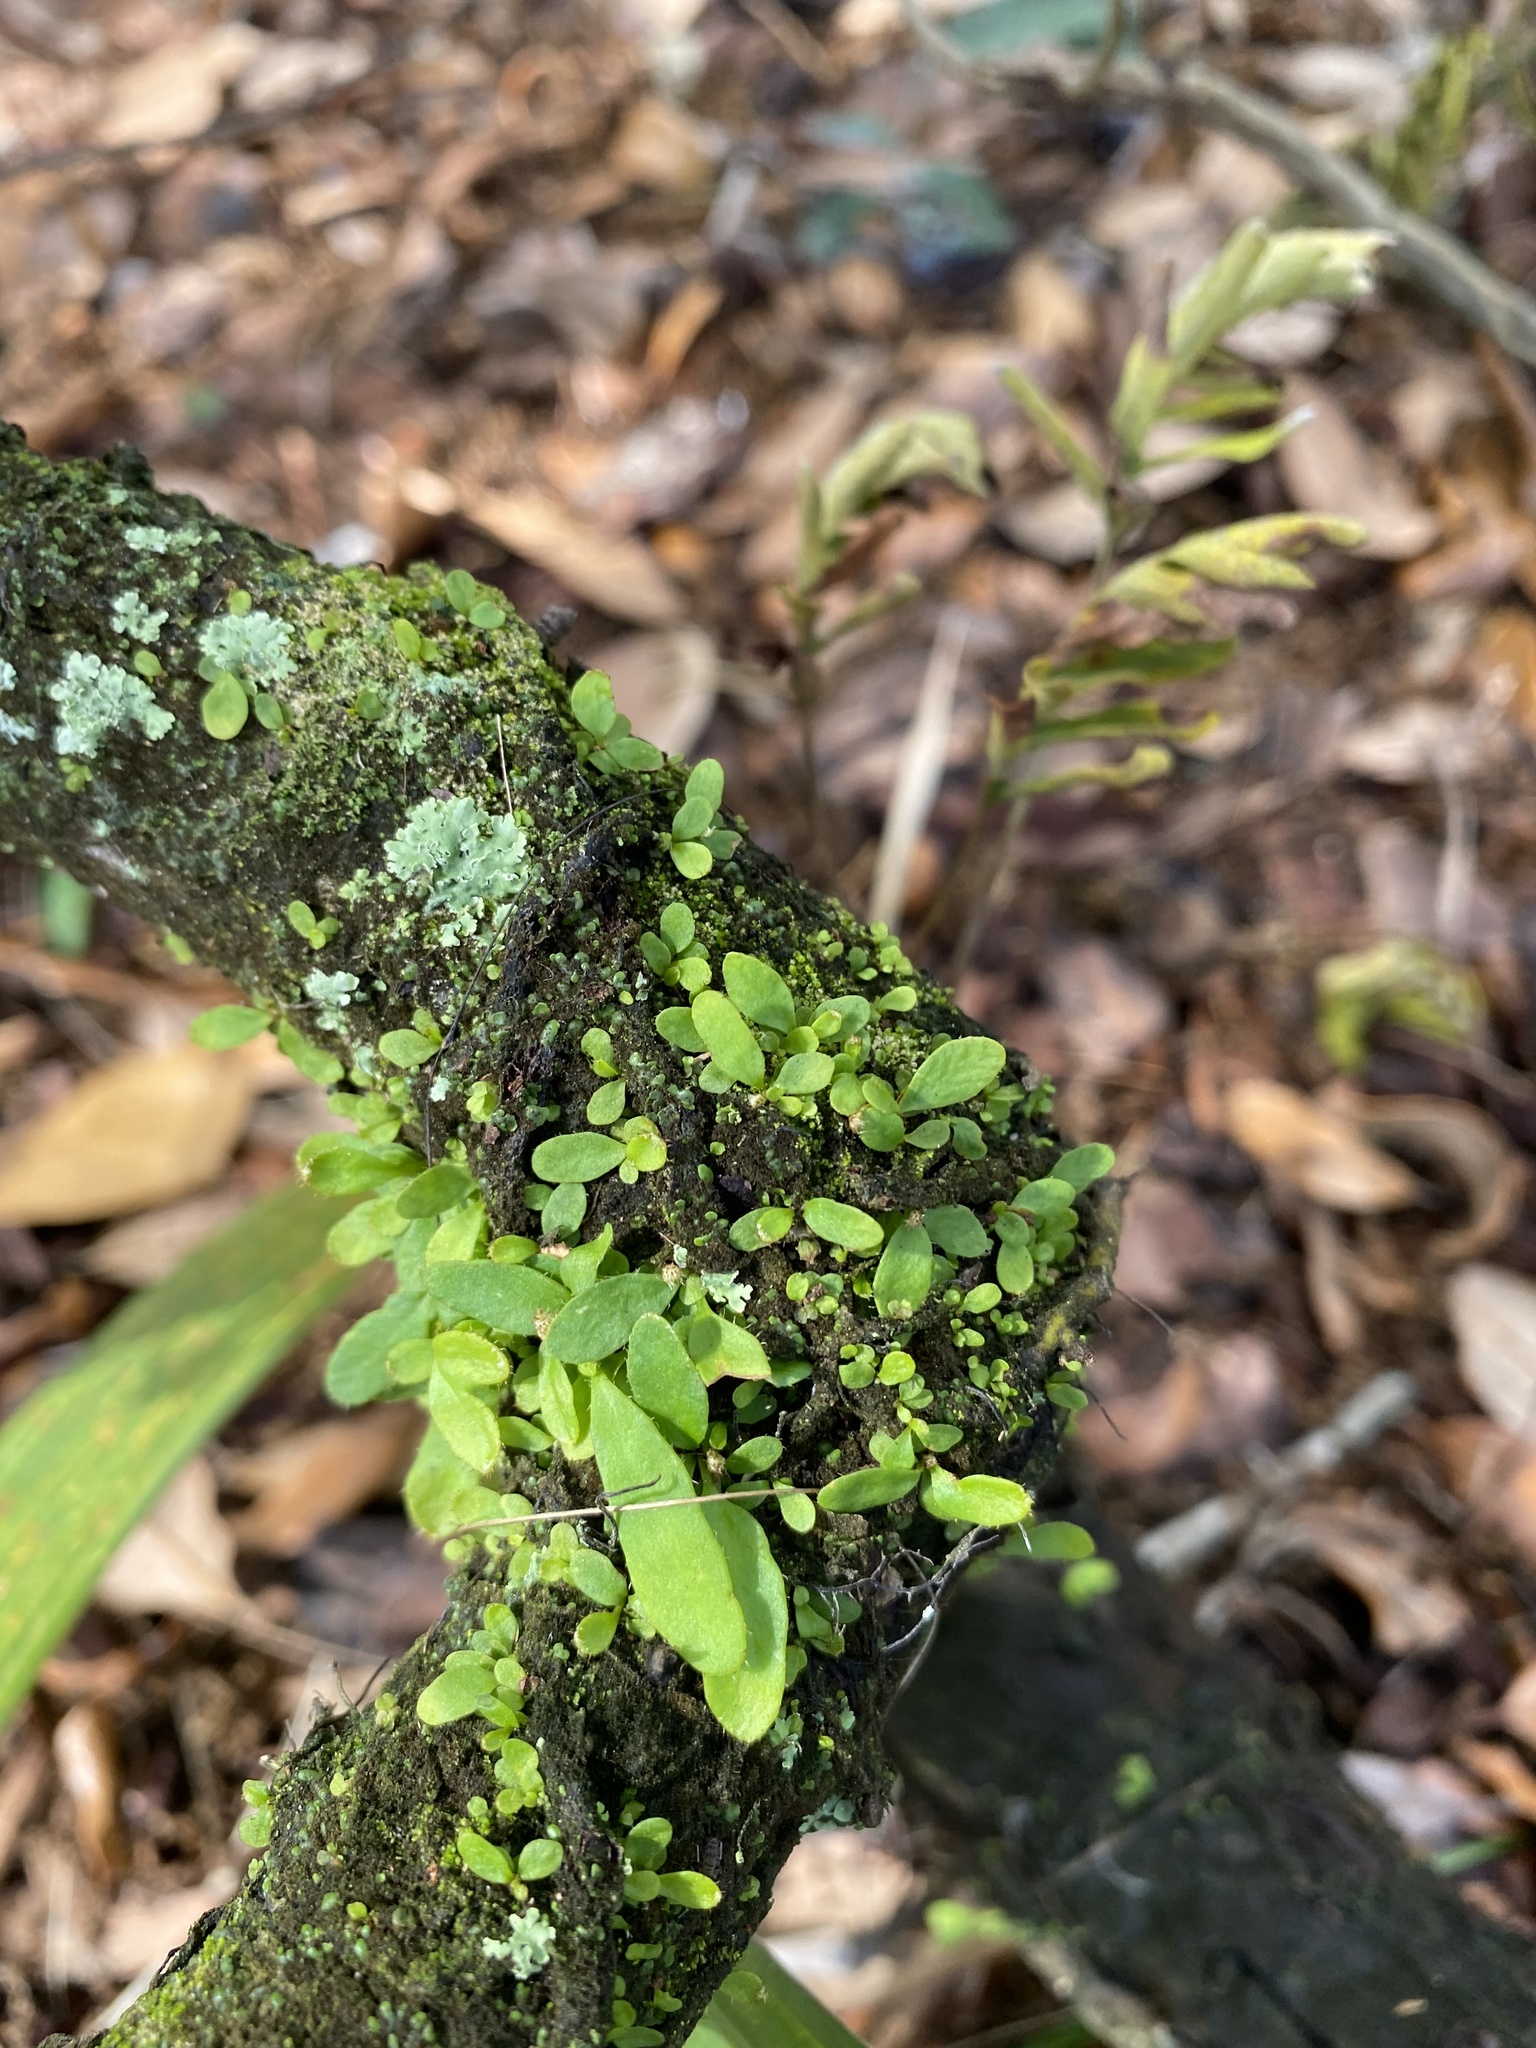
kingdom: Plantae
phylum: Tracheophyta
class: Polypodiopsida
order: Polypodiales
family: Polypodiaceae
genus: Pleopeltis
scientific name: Pleopeltis michauxiana
